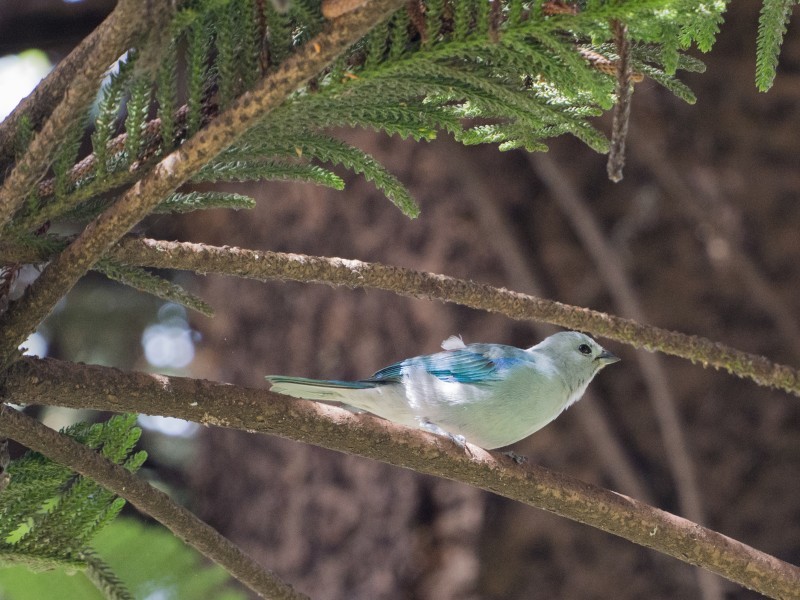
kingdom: Animalia
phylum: Chordata
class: Aves
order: Passeriformes
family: Thraupidae
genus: Thraupis
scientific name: Thraupis episcopus
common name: Blue-grey tanager
